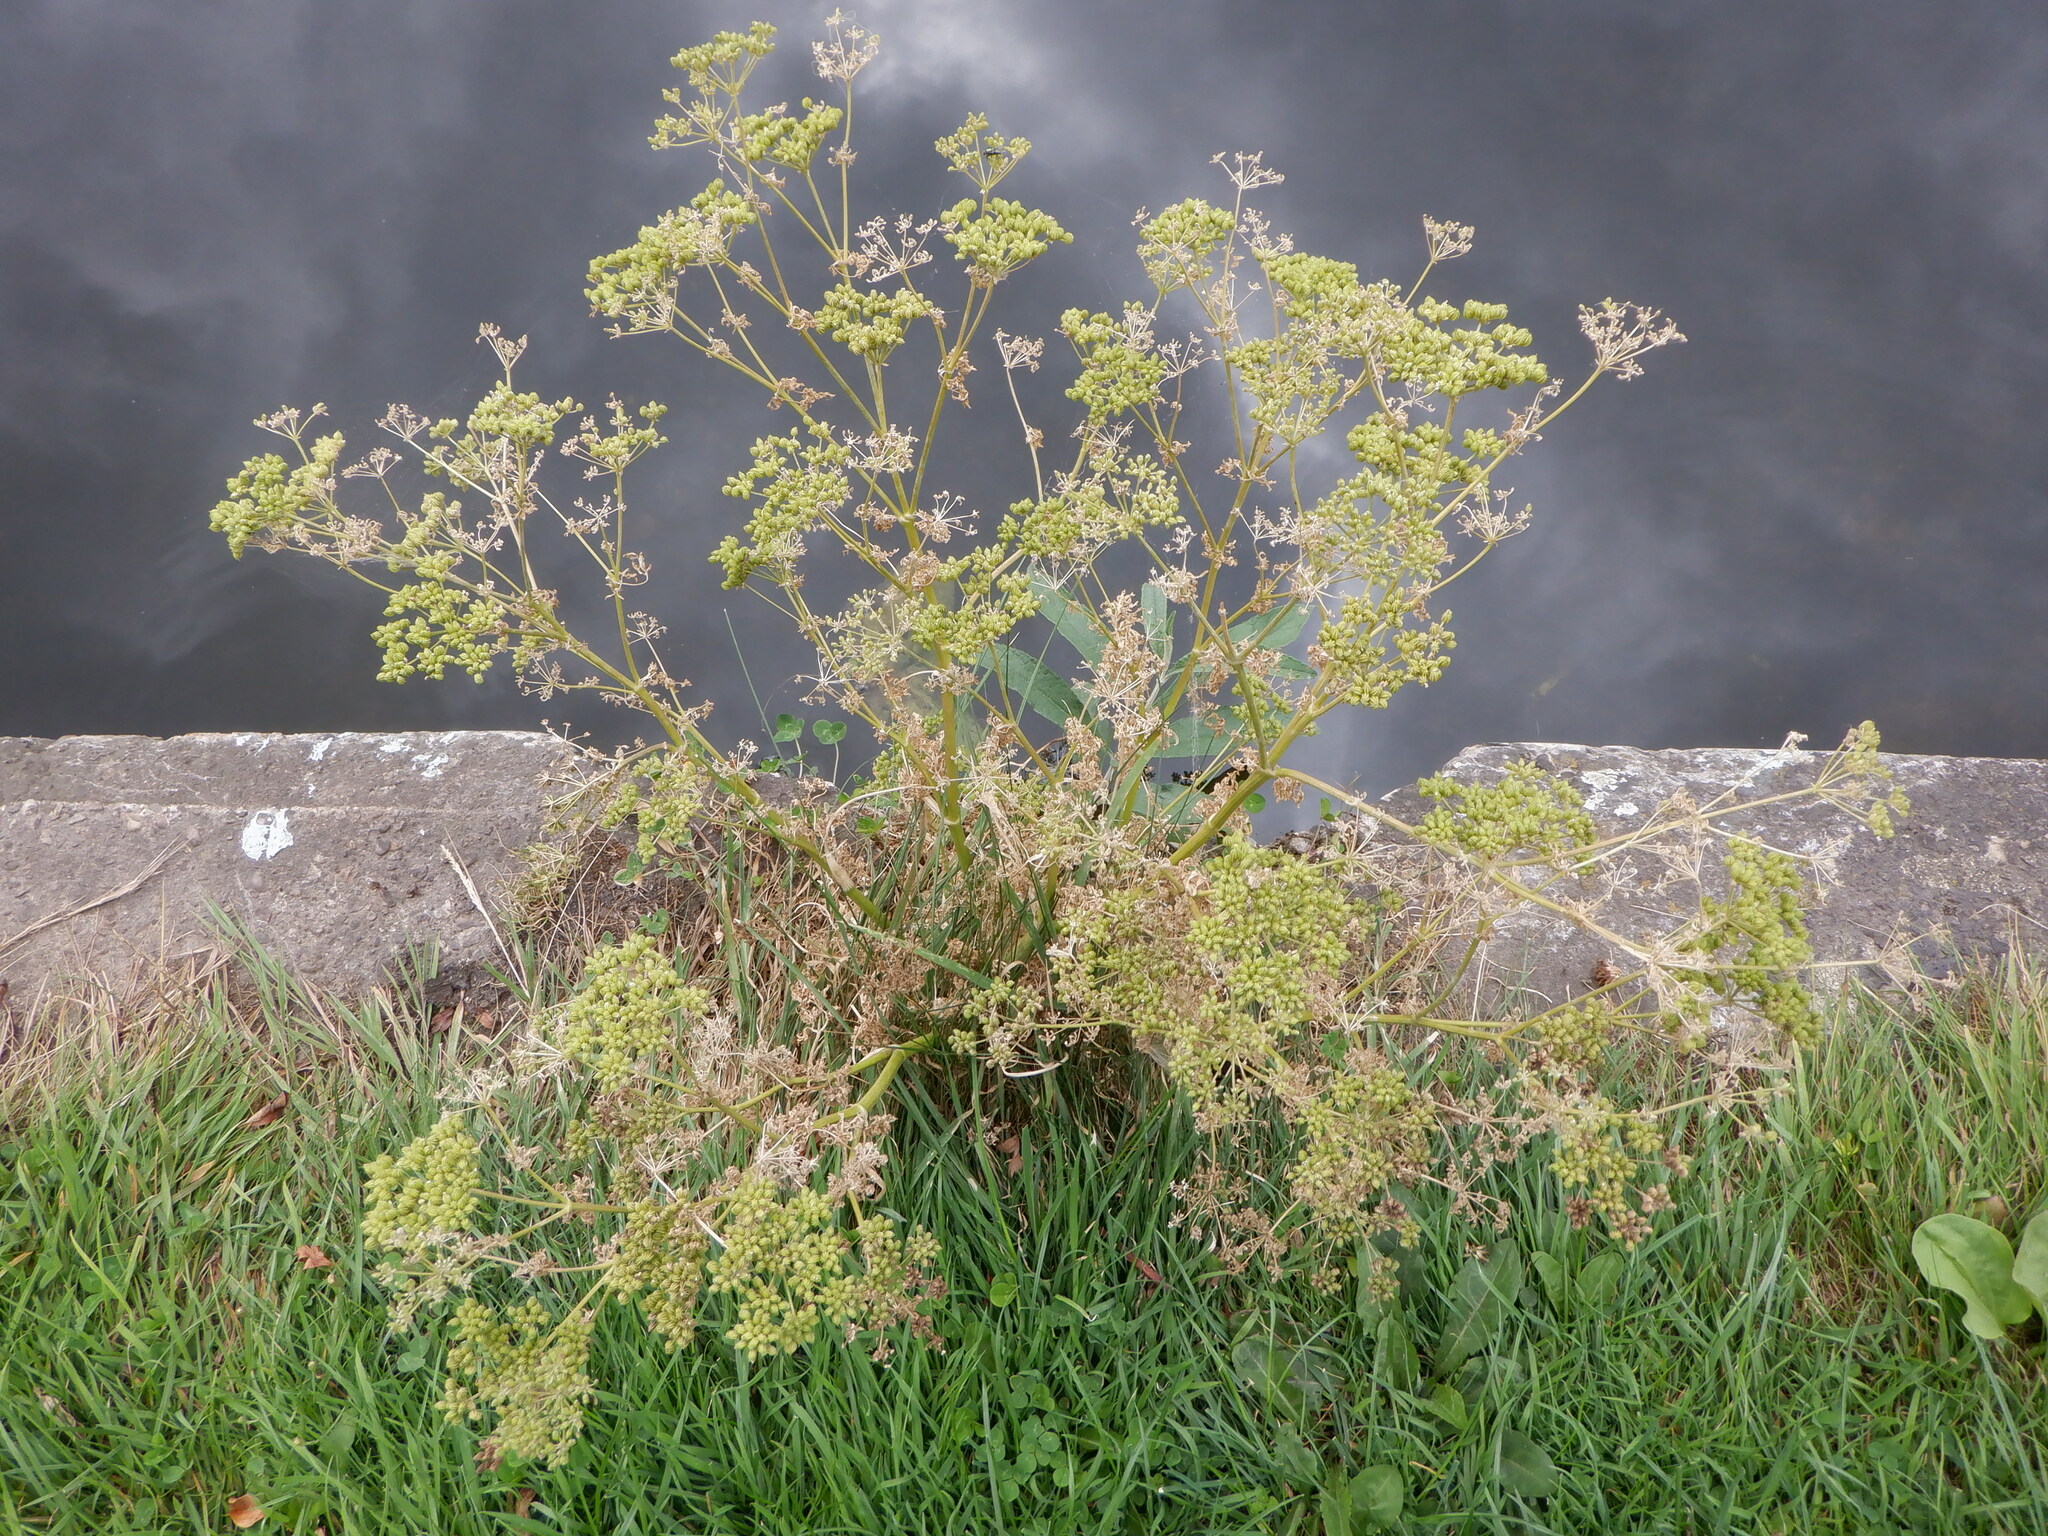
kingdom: Plantae
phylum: Tracheophyta
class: Magnoliopsida
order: Apiales
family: Apiaceae
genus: Conium
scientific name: Conium maculatum
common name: Hemlock
